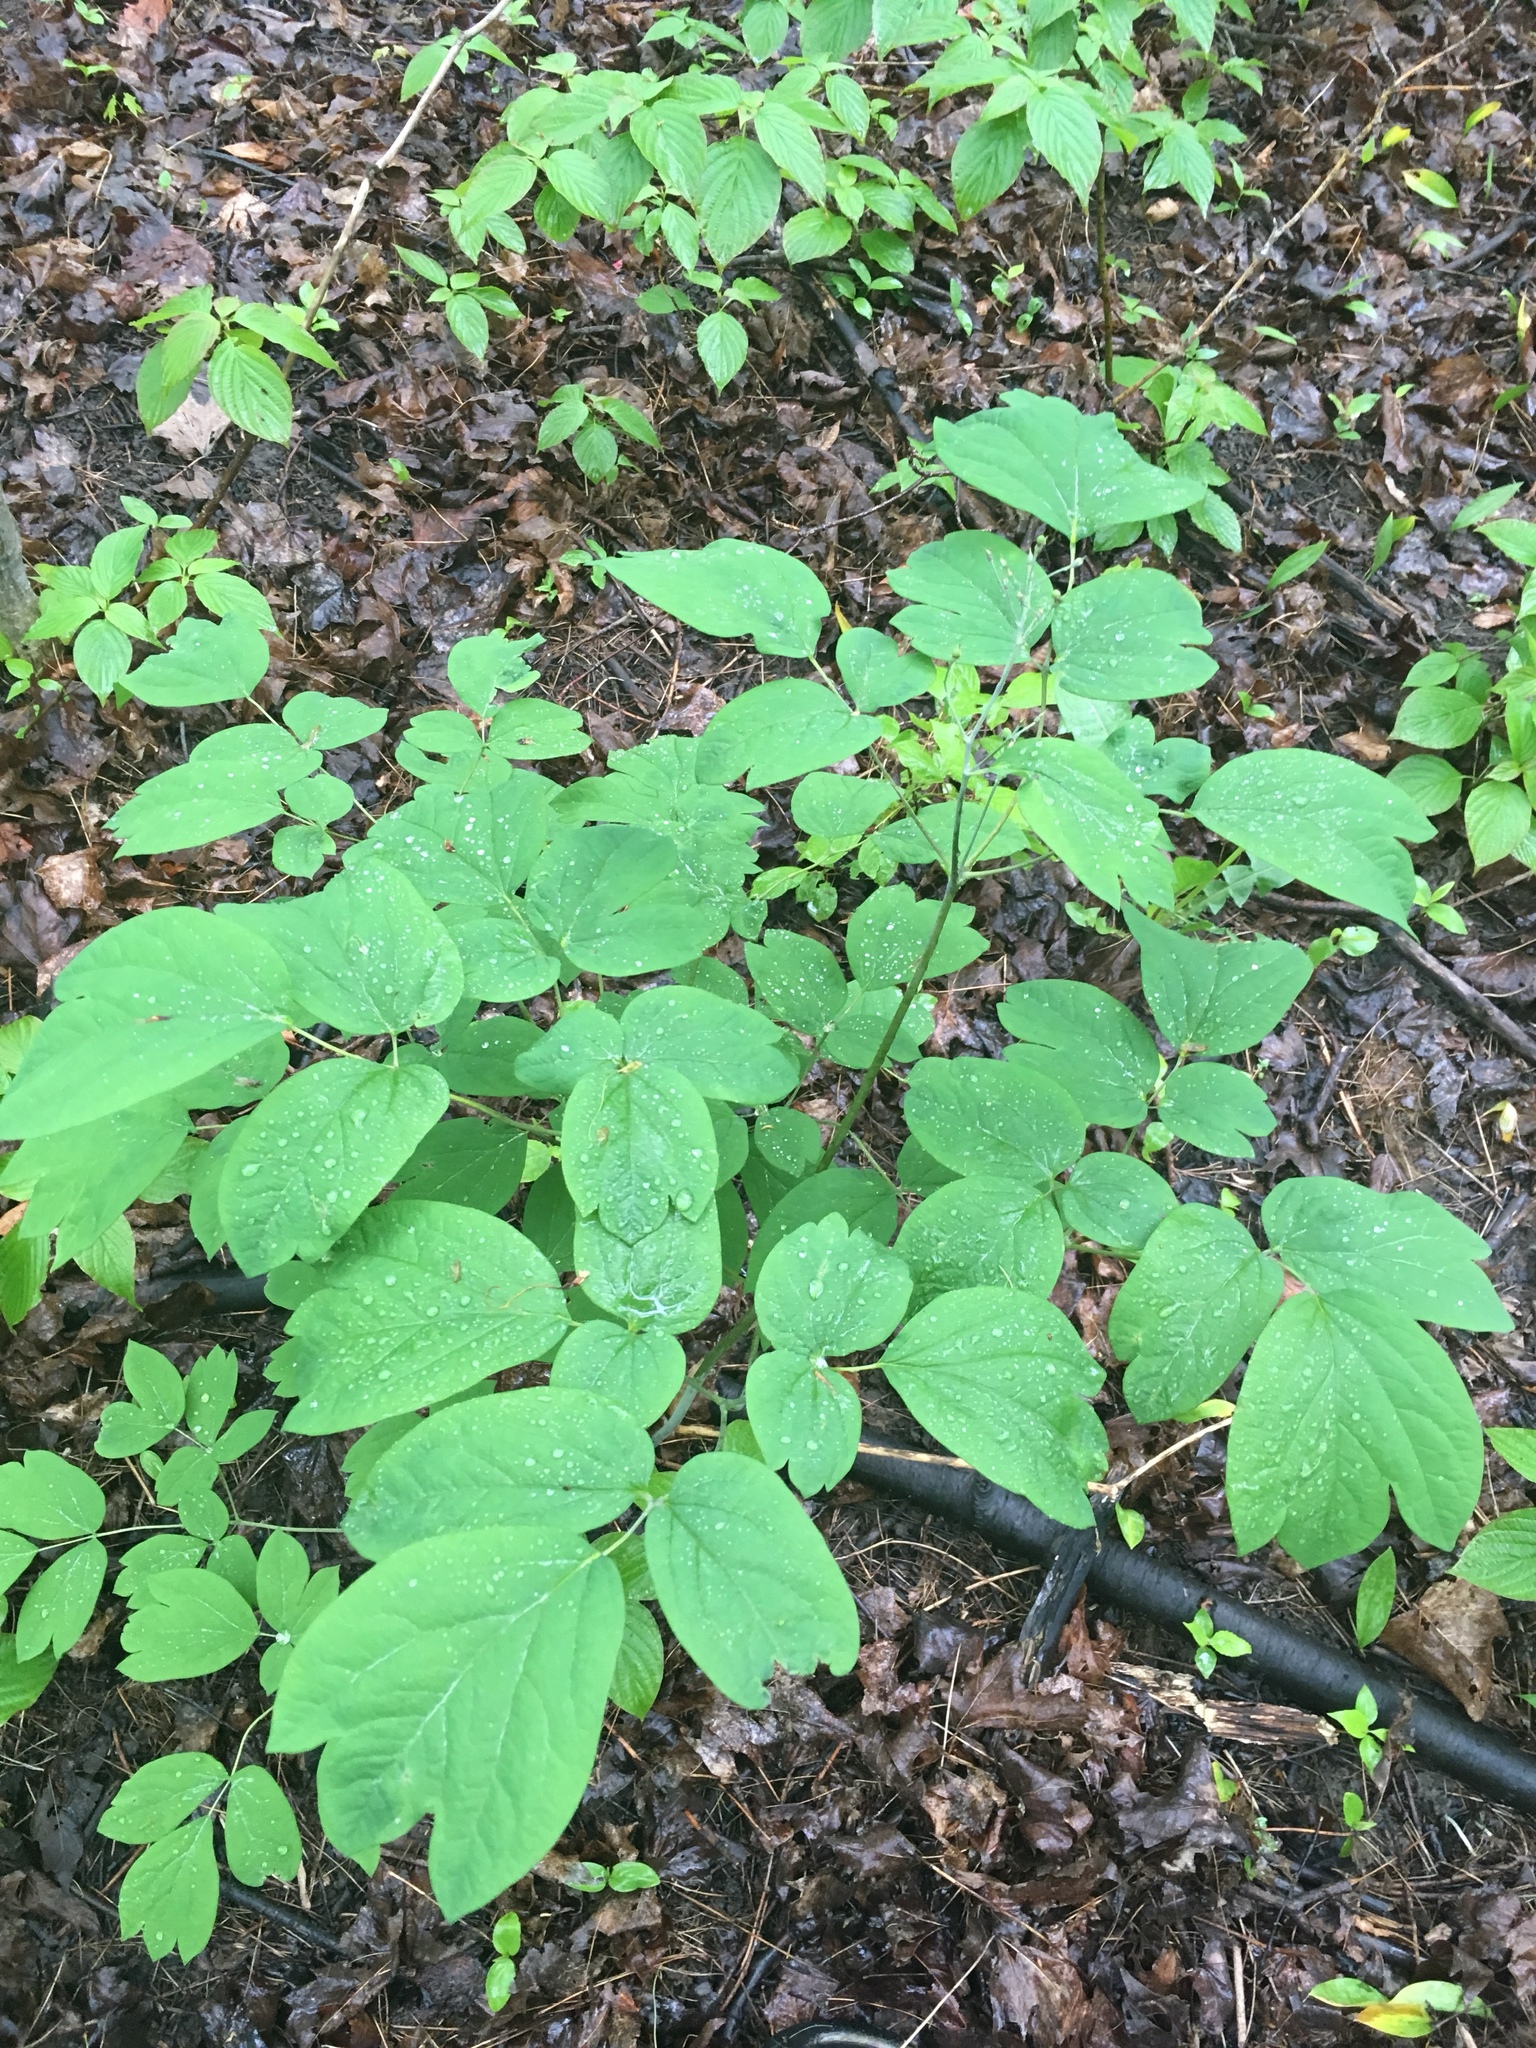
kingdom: Plantae
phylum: Tracheophyta
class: Magnoliopsida
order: Ranunculales
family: Berberidaceae
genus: Caulophyllum
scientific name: Caulophyllum giganteum
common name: Blue cohosh
